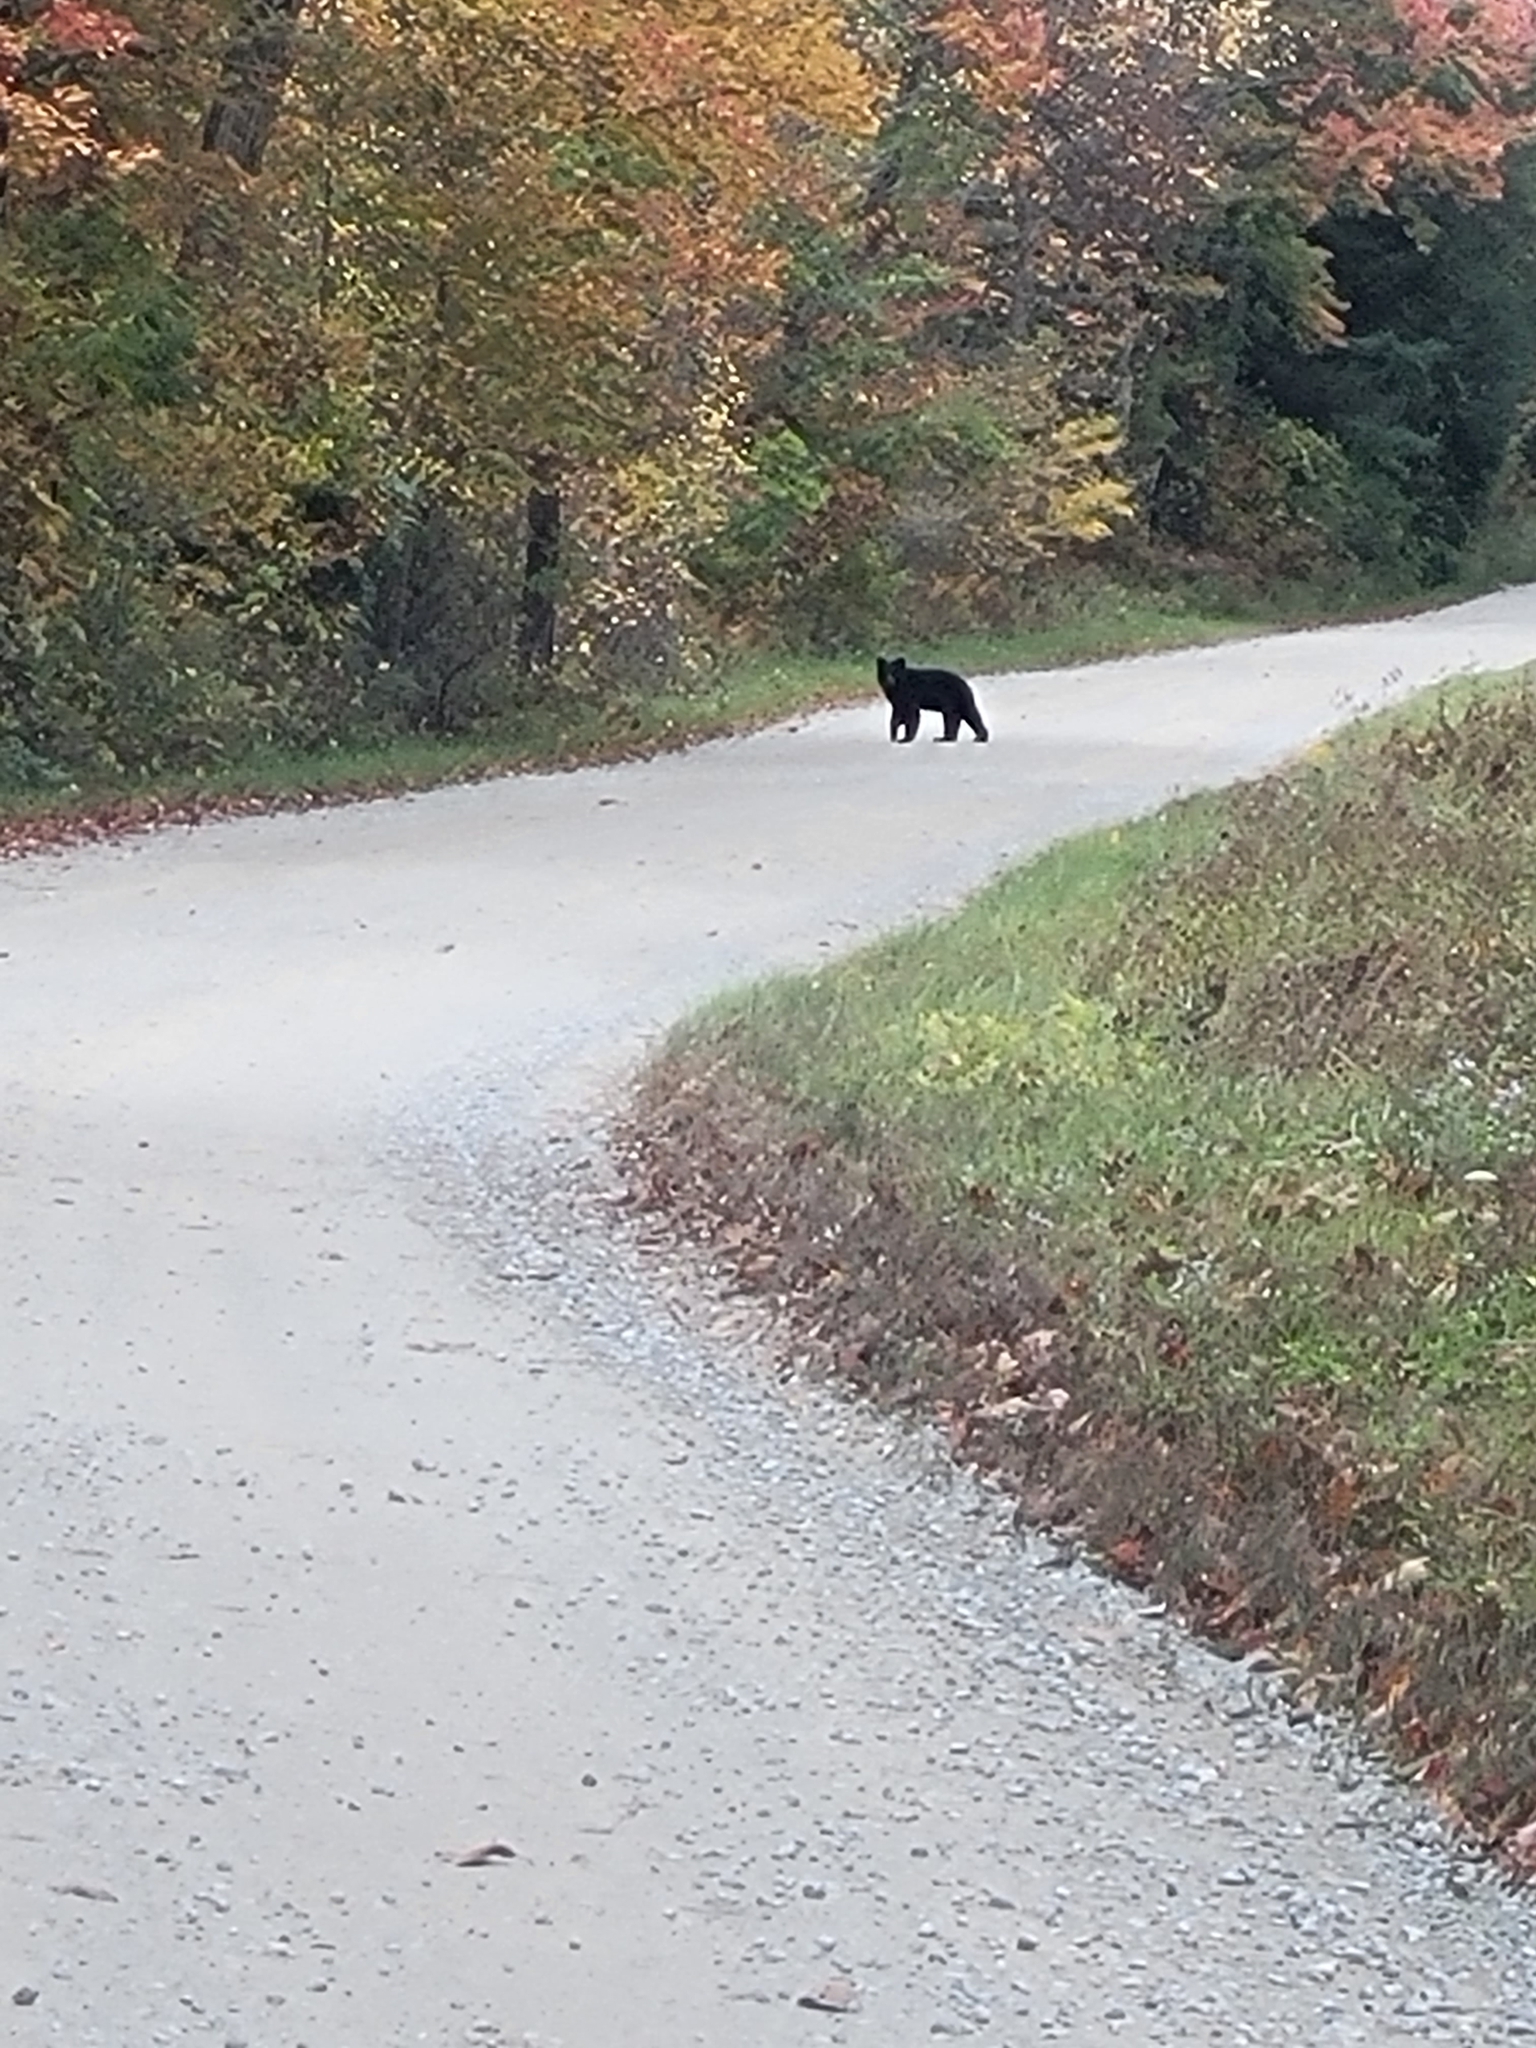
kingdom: Animalia
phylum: Chordata
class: Mammalia
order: Carnivora
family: Ursidae
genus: Ursus
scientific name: Ursus americanus
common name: American black bear
